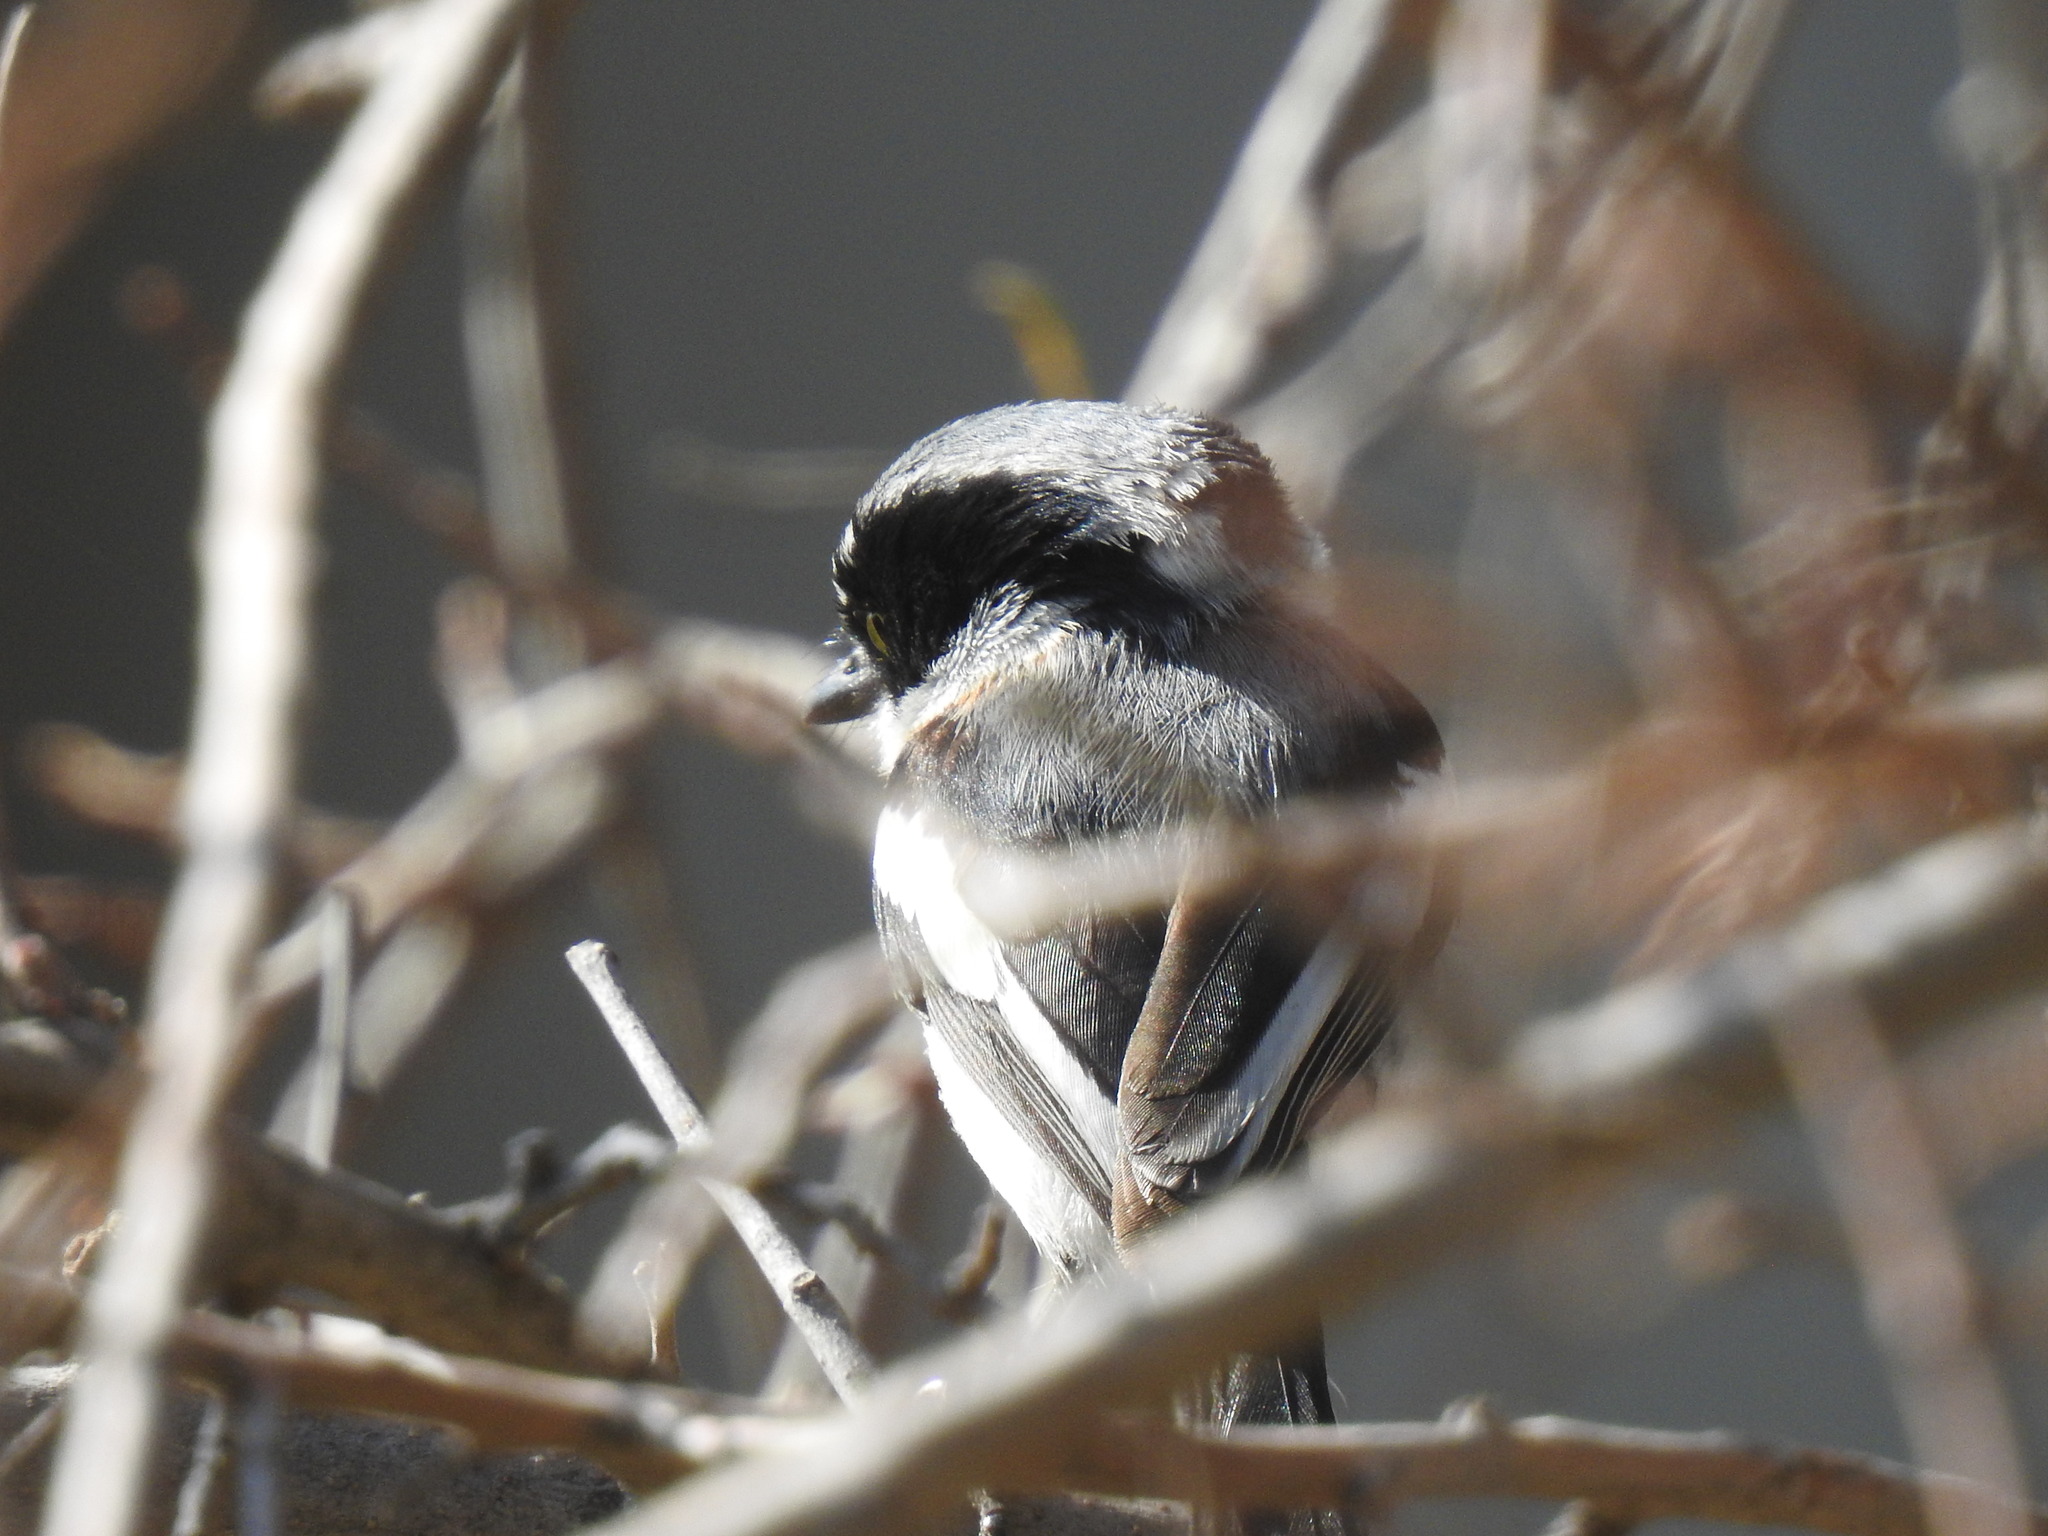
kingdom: Animalia
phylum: Chordata
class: Aves
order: Passeriformes
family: Platysteiridae
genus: Batis
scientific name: Batis molitor
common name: Chinspot batis
